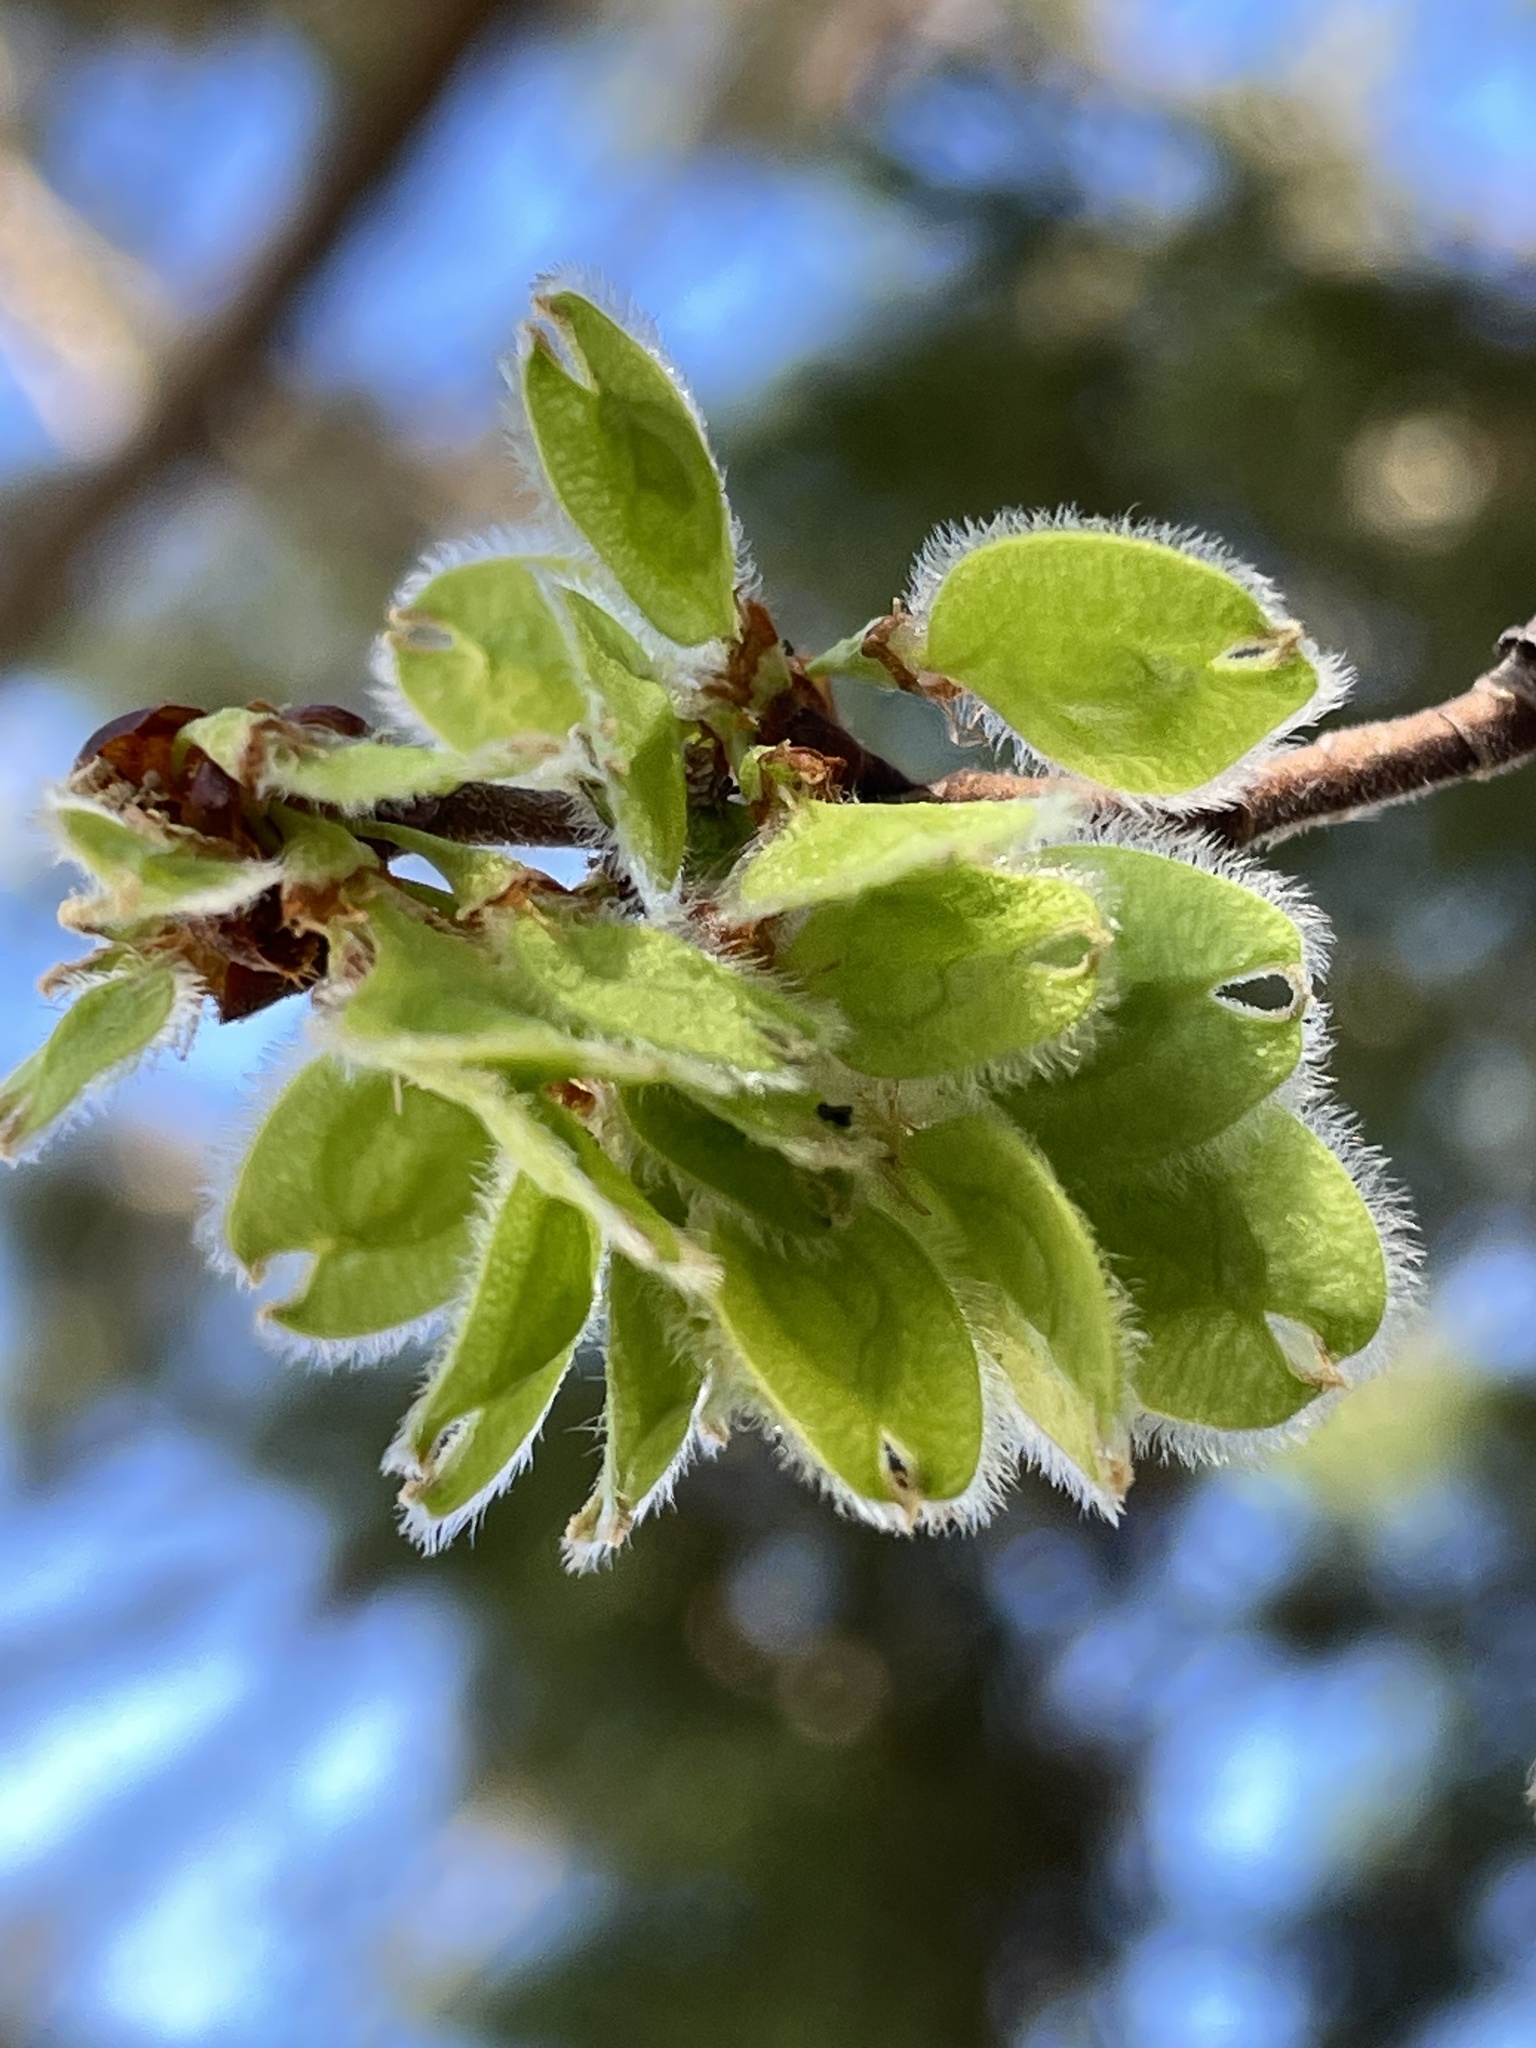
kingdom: Plantae
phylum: Tracheophyta
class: Magnoliopsida
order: Rosales
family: Ulmaceae
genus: Ulmus
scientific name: Ulmus americana
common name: American elm
